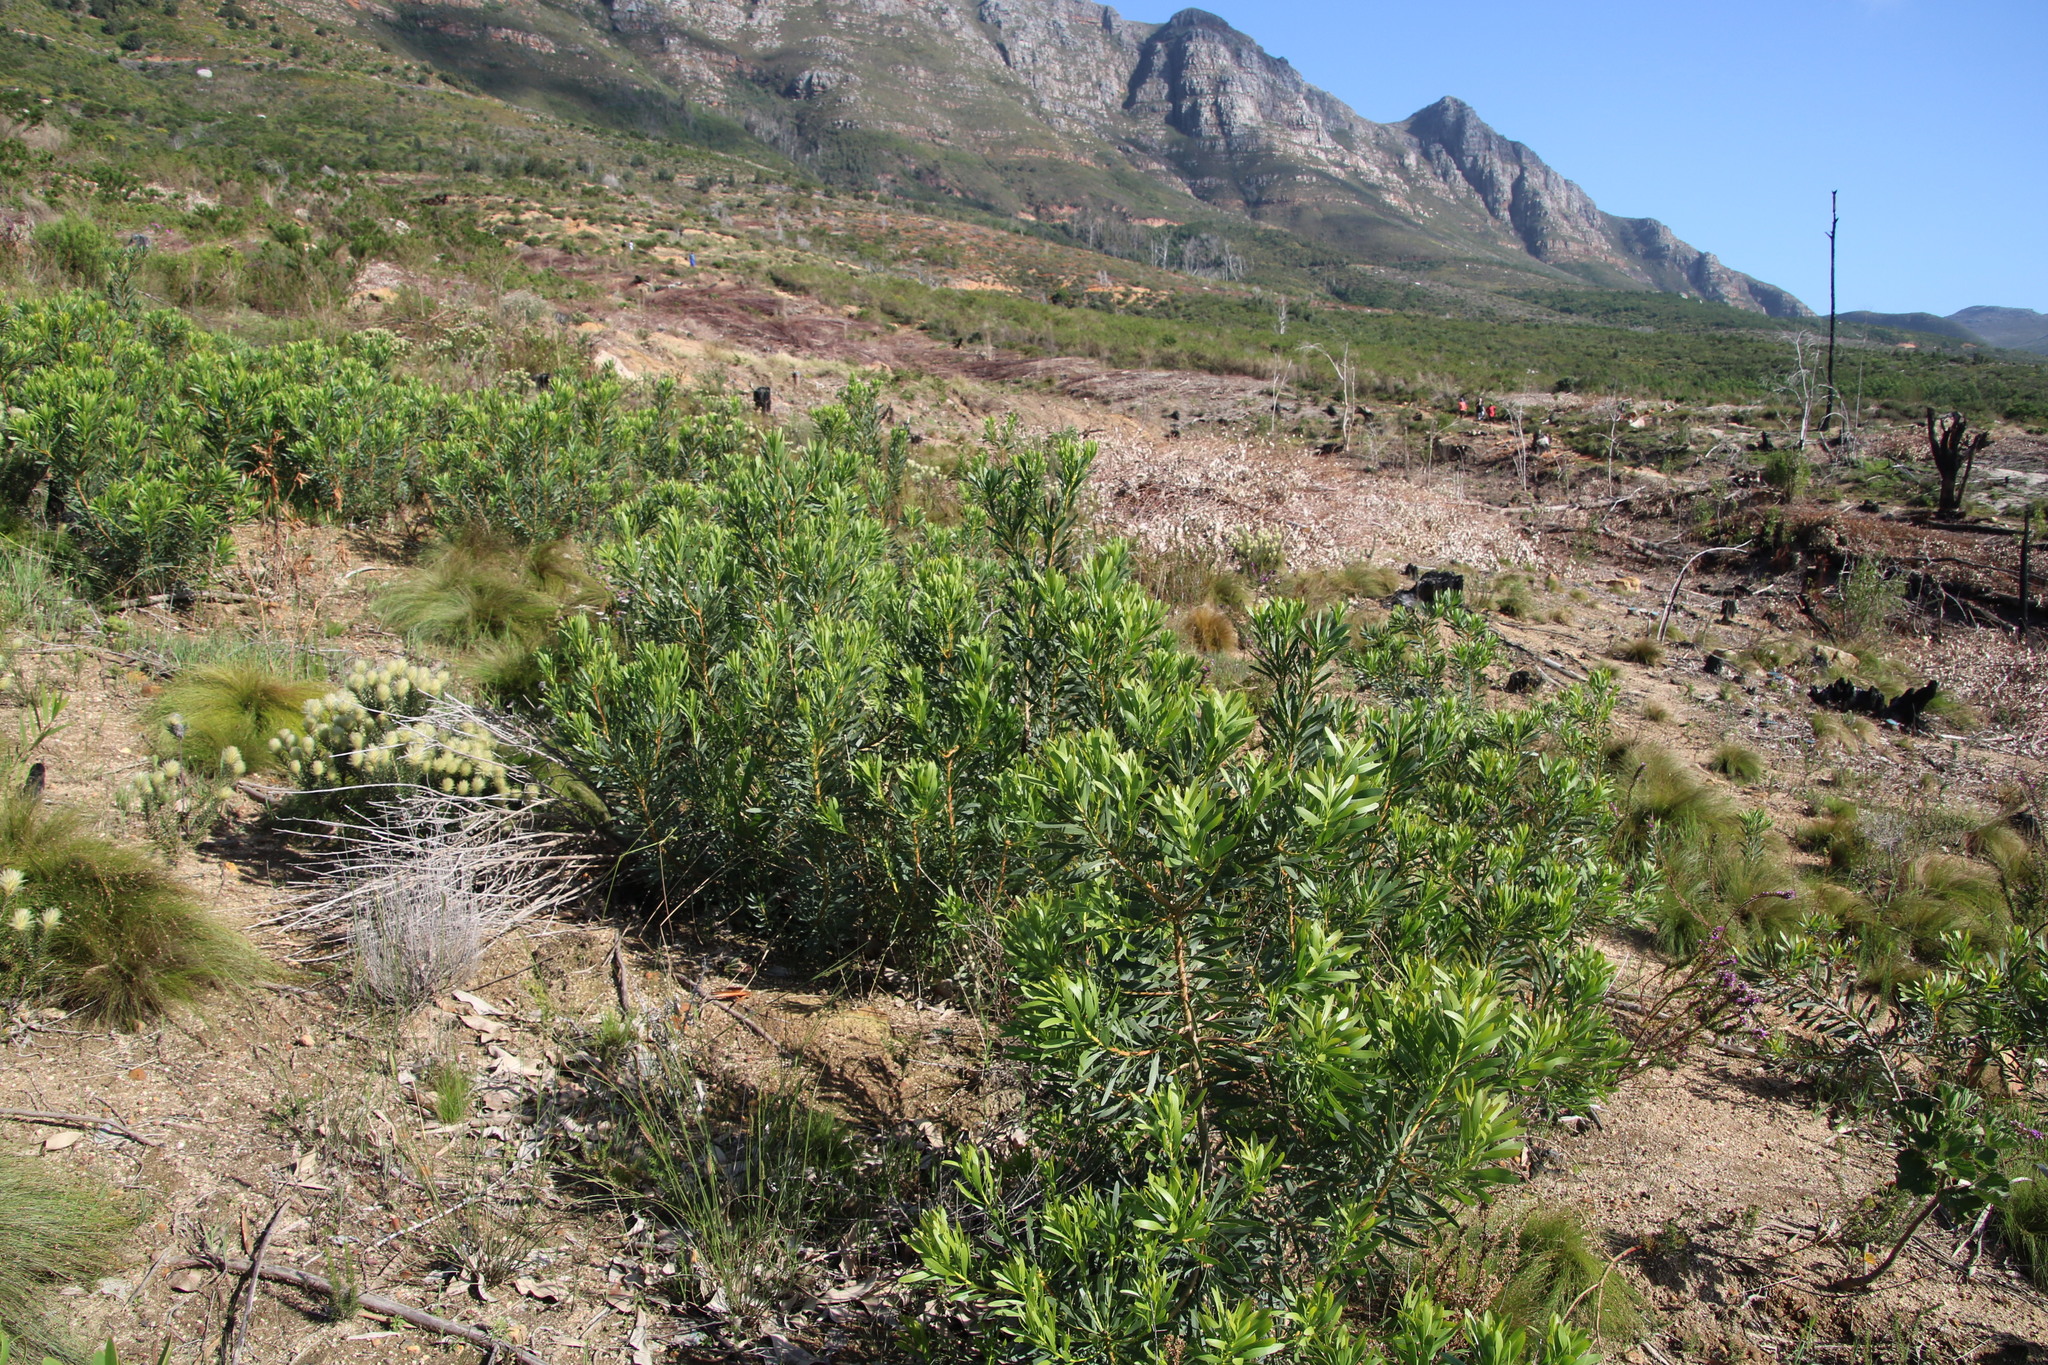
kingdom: Plantae
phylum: Tracheophyta
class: Magnoliopsida
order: Proteales
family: Proteaceae
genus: Protea
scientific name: Protea repens
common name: Sugarbush
